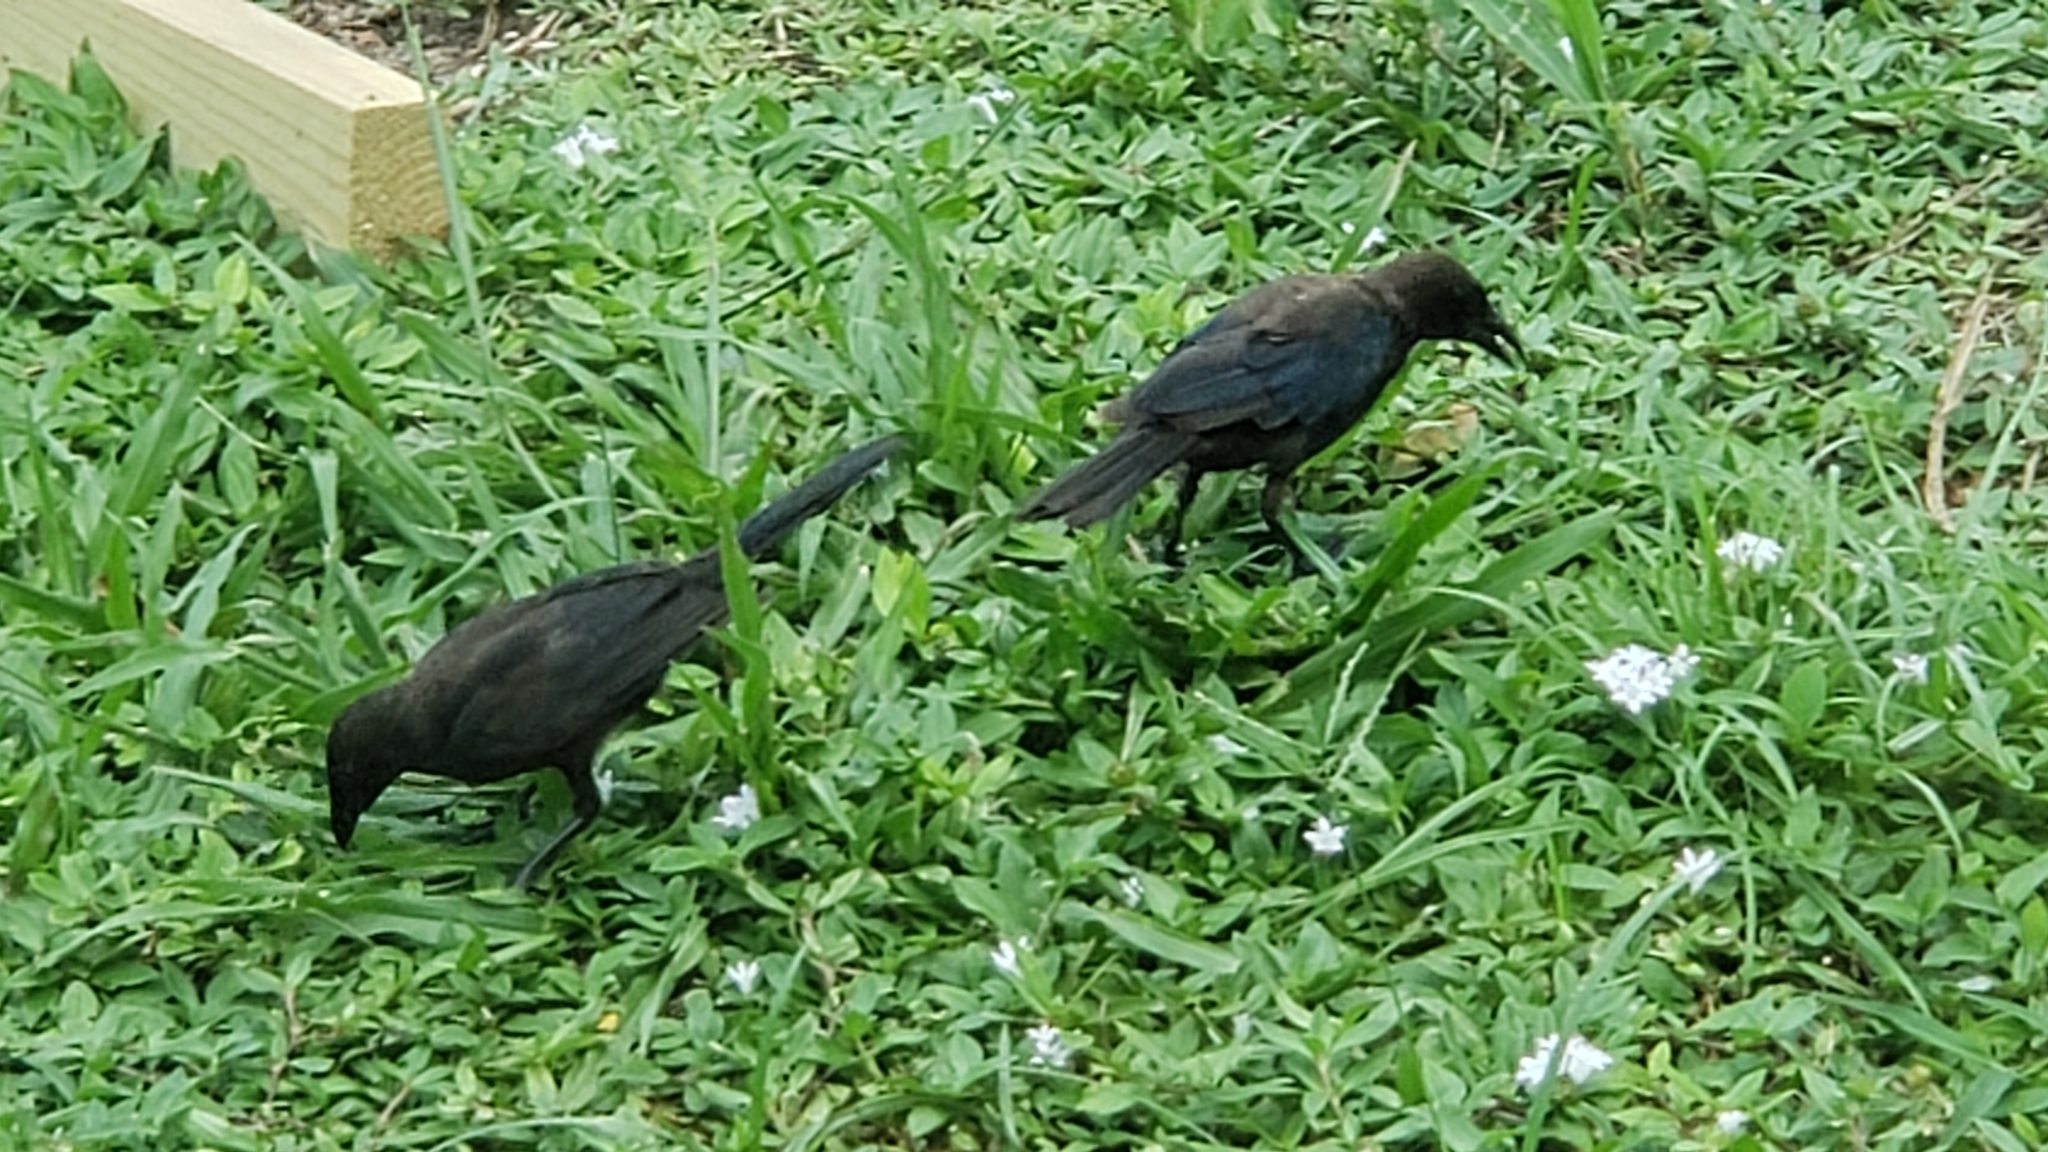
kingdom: Animalia
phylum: Chordata
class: Aves
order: Passeriformes
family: Icteridae
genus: Quiscalus
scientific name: Quiscalus quiscula
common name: Common grackle
